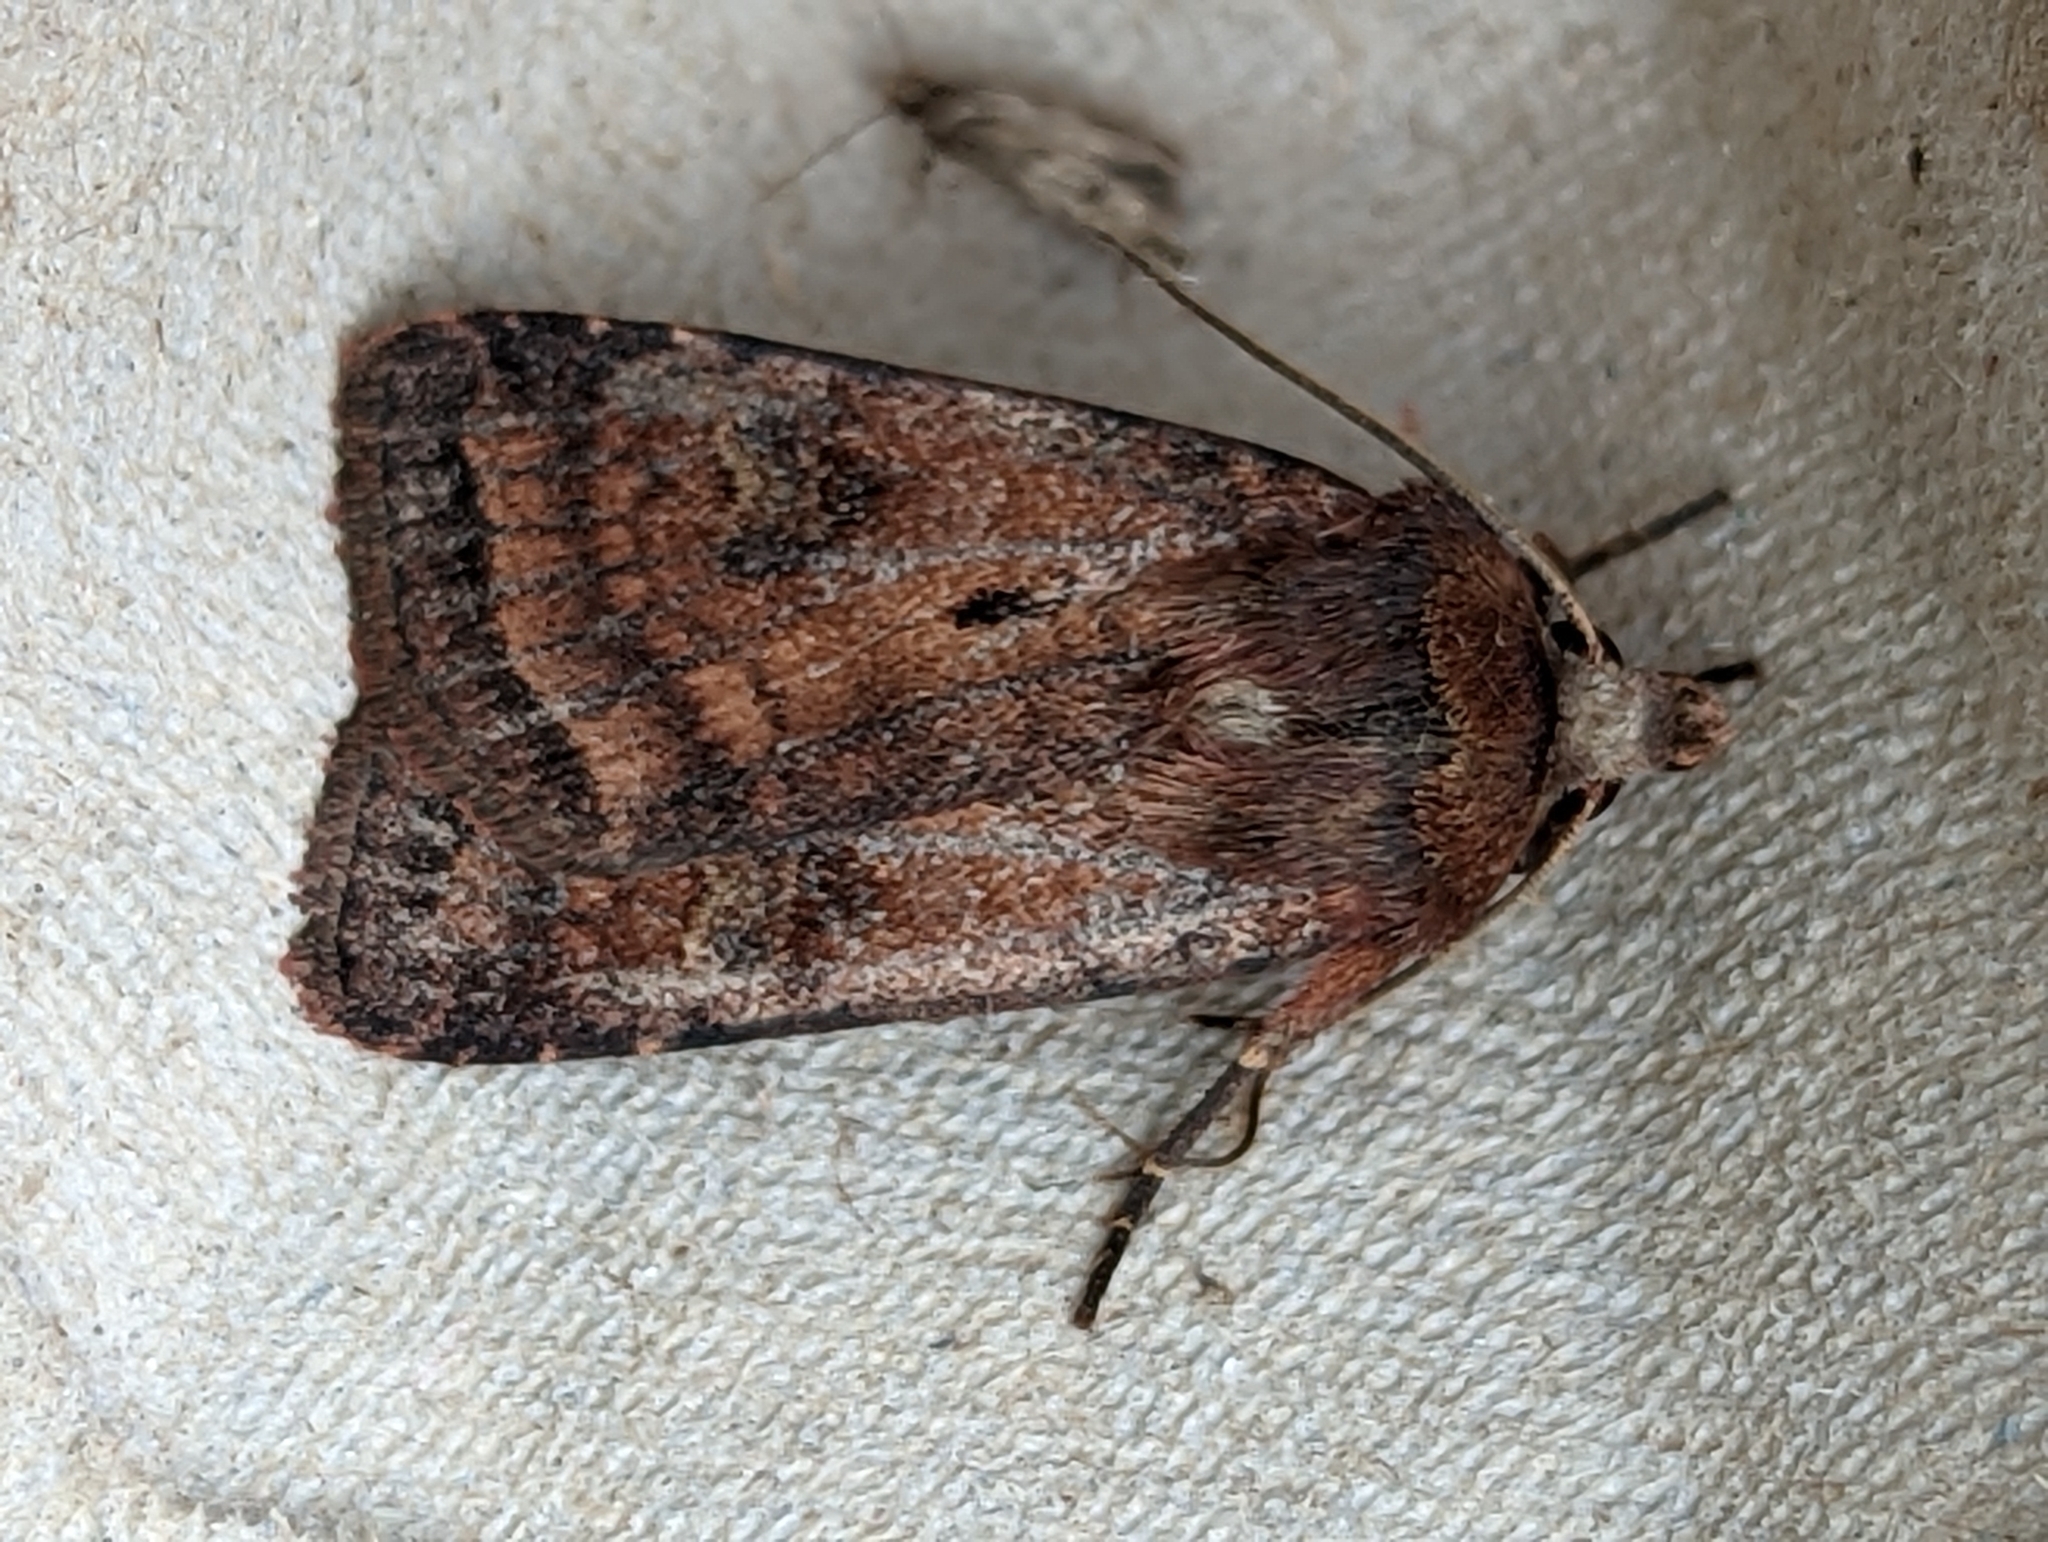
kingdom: Animalia
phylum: Arthropoda
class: Insecta
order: Lepidoptera
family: Noctuidae
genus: Diarsia
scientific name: Diarsia rubi
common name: Small square-spot
